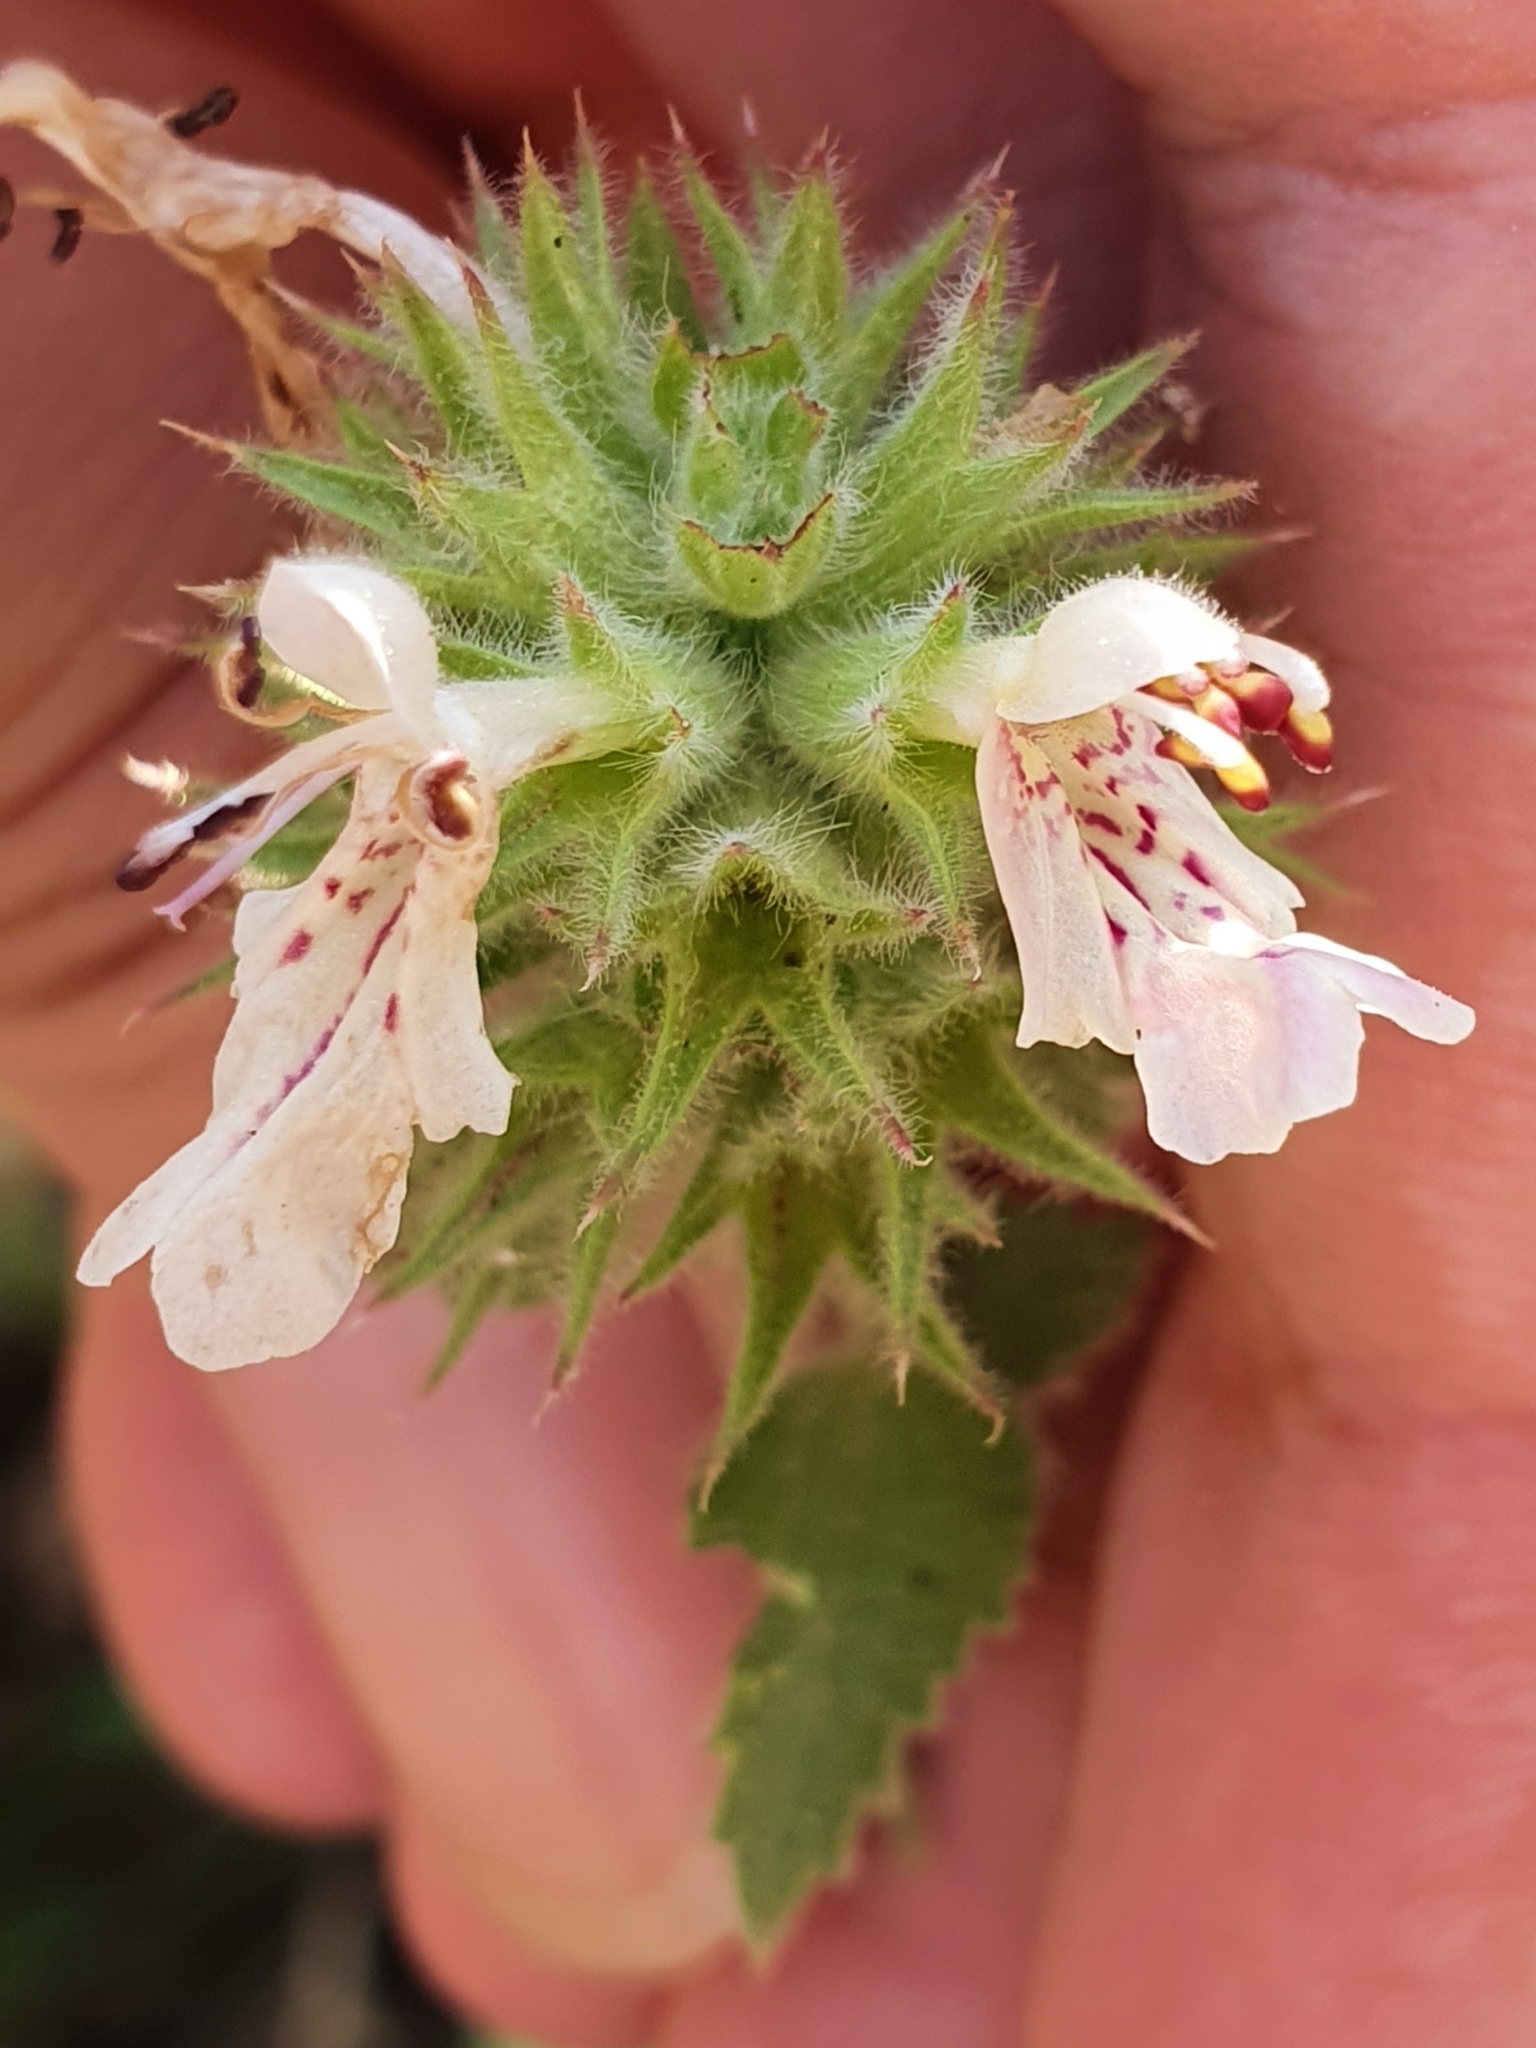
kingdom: Plantae
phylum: Tracheophyta
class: Magnoliopsida
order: Lamiales
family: Lamiaceae
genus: Stachys
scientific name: Stachys circinata
